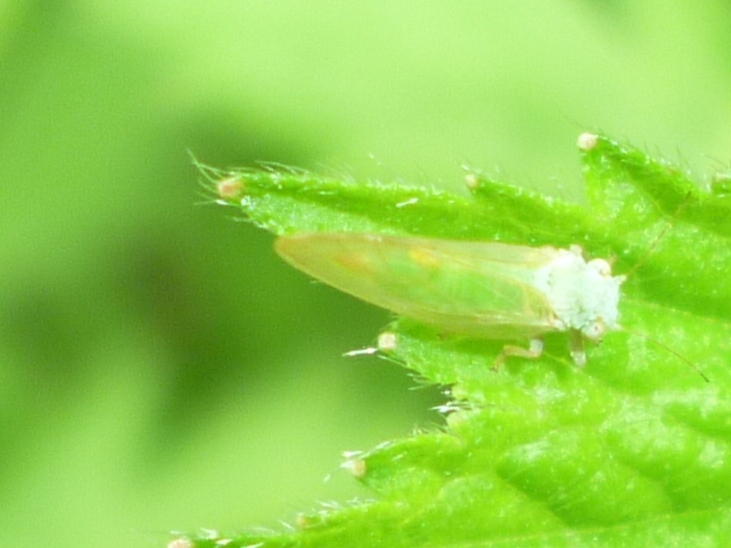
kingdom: Animalia
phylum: Arthropoda
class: Insecta
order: Hemiptera
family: Psyllidae
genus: Psylla
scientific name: Psylla buxi
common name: Boxwood psyllid
